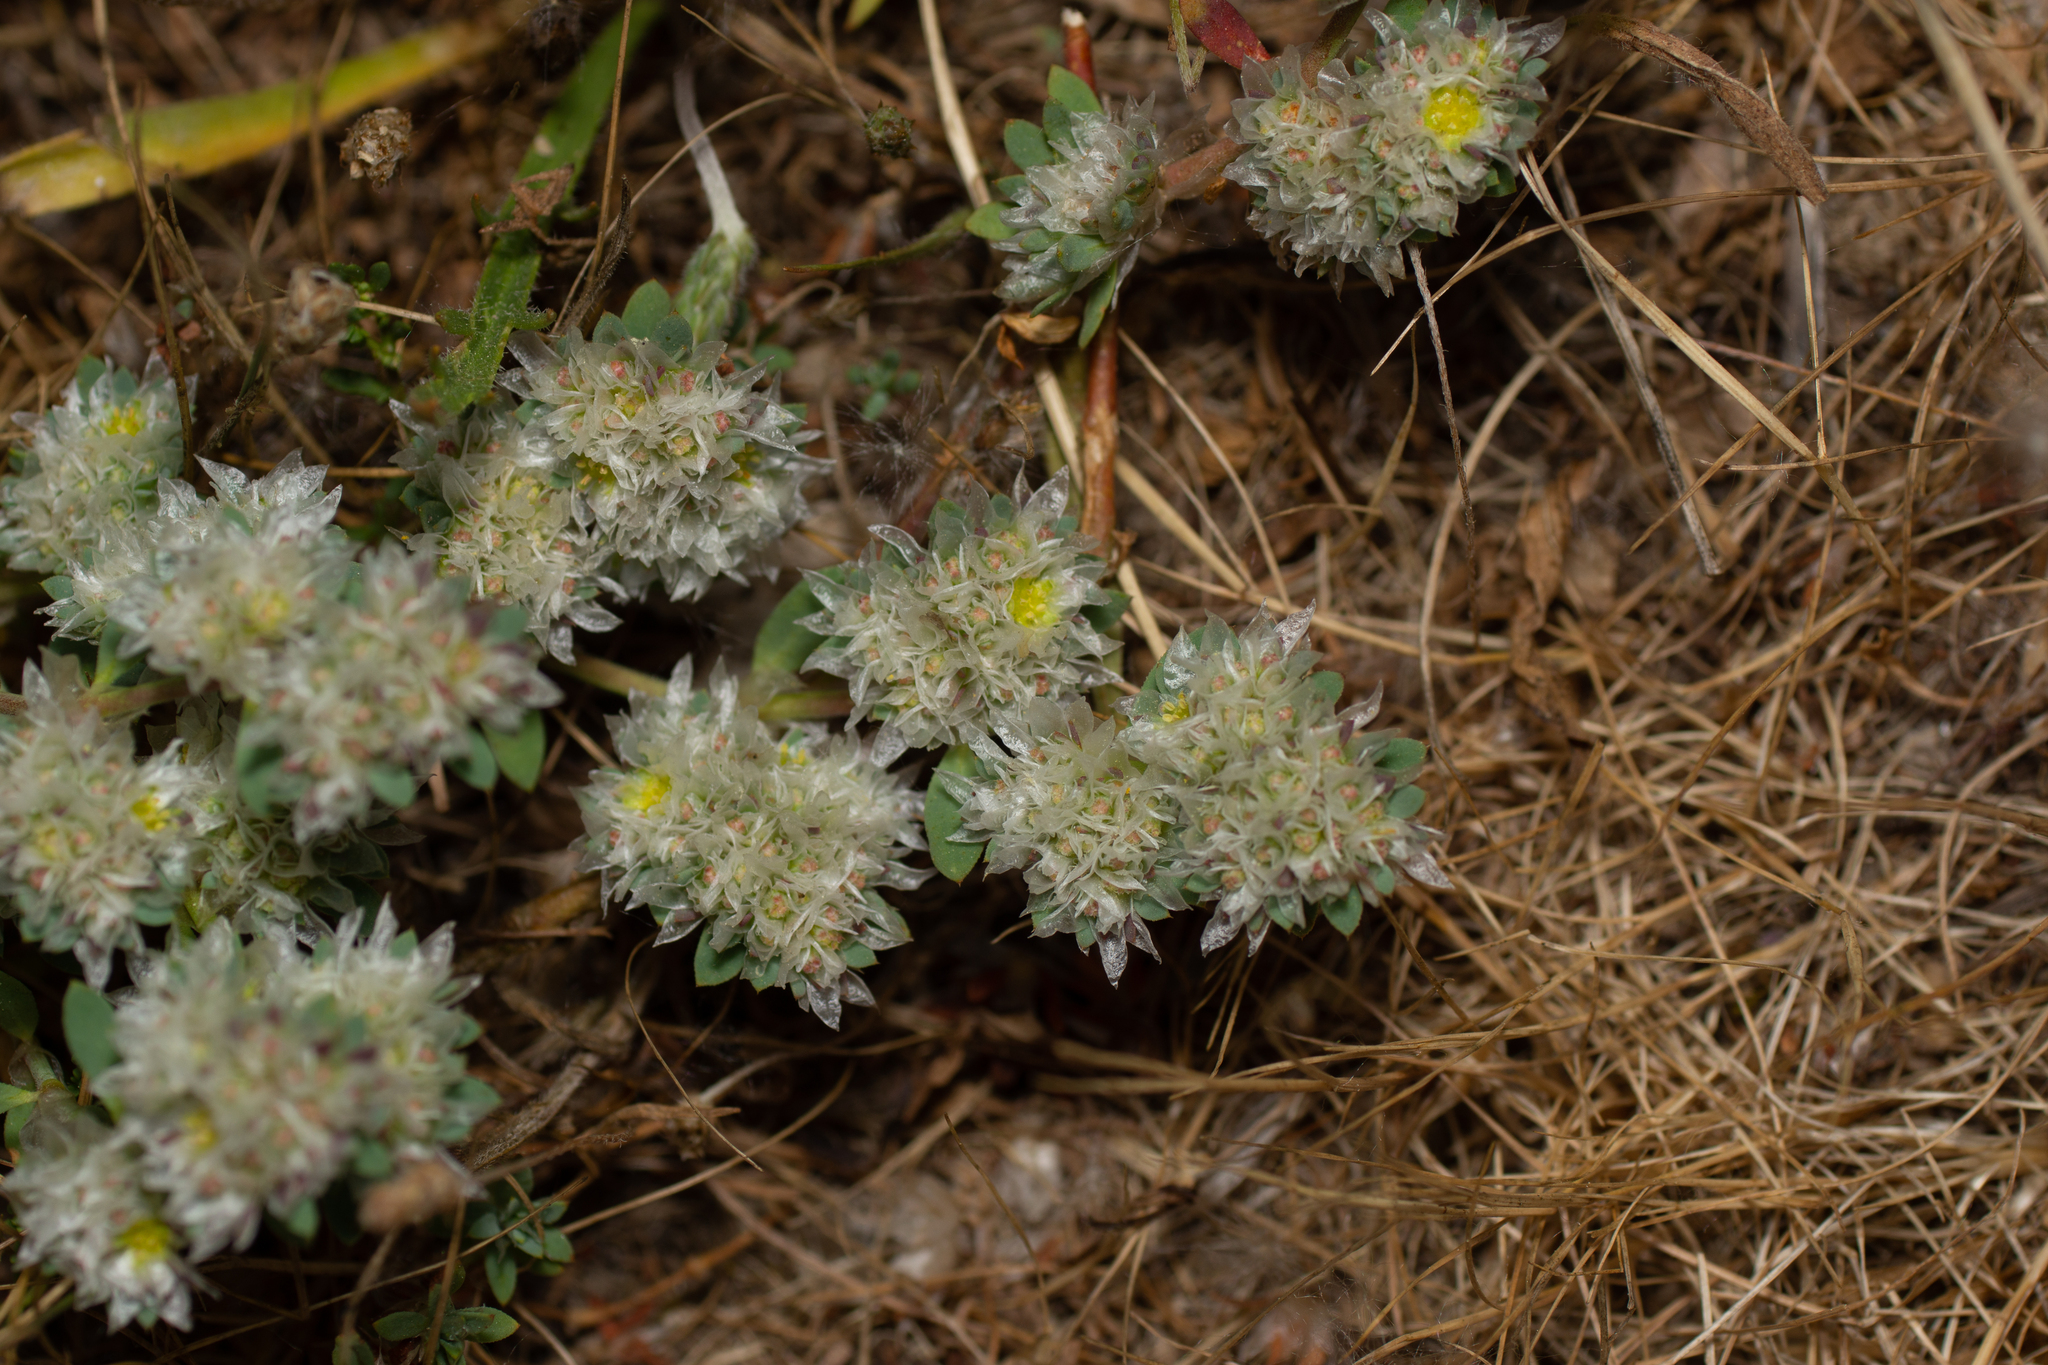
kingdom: Plantae
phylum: Tracheophyta
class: Magnoliopsida
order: Caryophyllales
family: Caryophyllaceae
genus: Paronychia
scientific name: Paronychia argentea
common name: Silver nailroot
